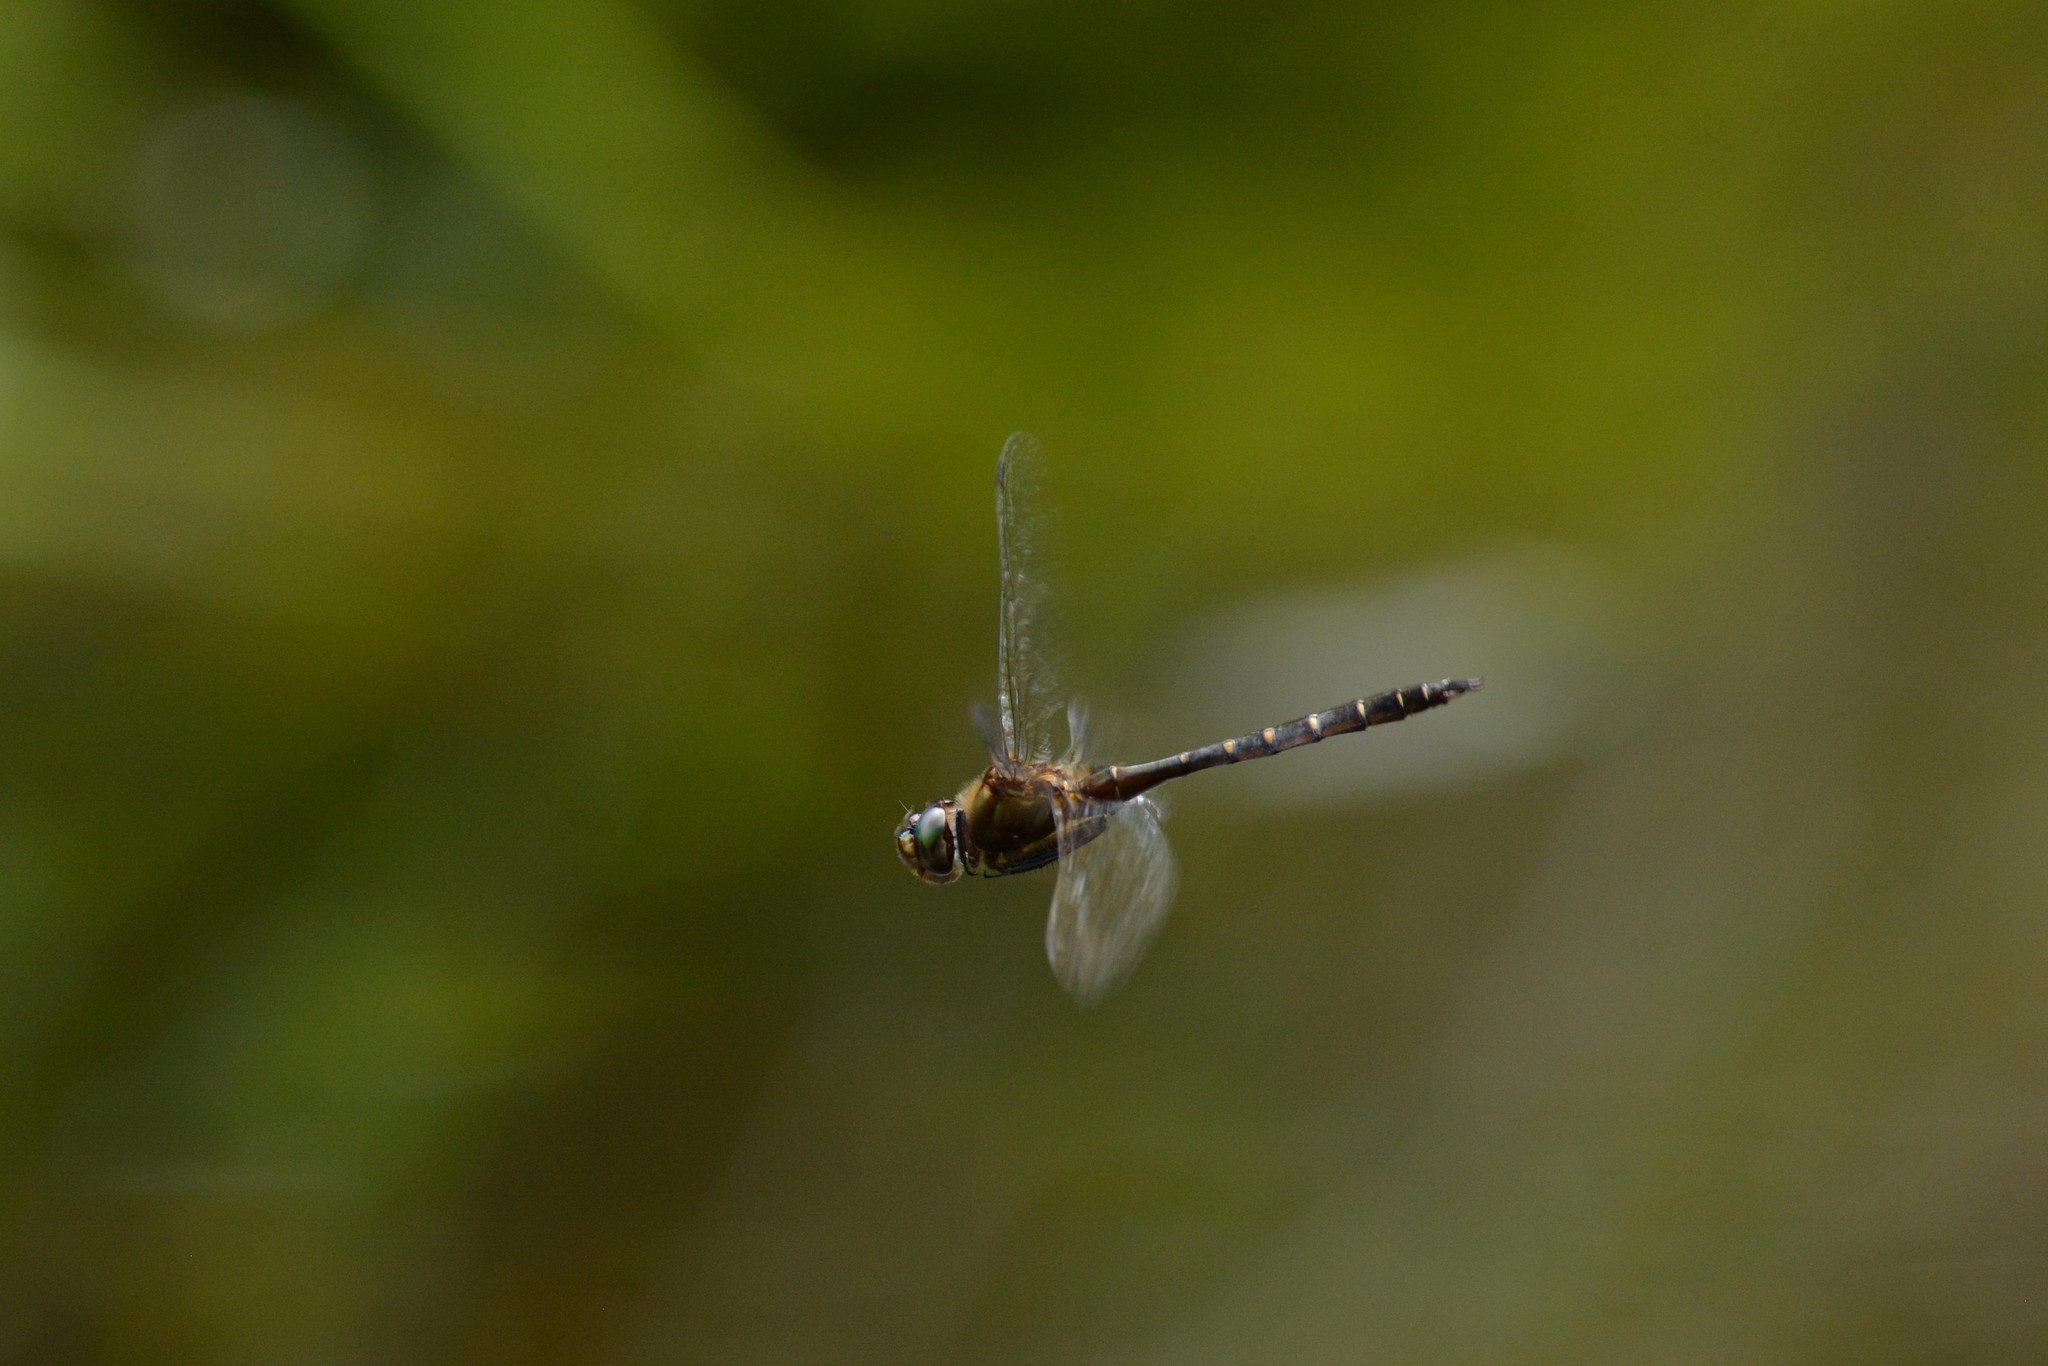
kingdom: Animalia
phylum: Arthropoda
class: Insecta
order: Odonata
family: Corduliidae
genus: Procordulia
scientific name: Procordulia smithii
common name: Ranger dragonfly
